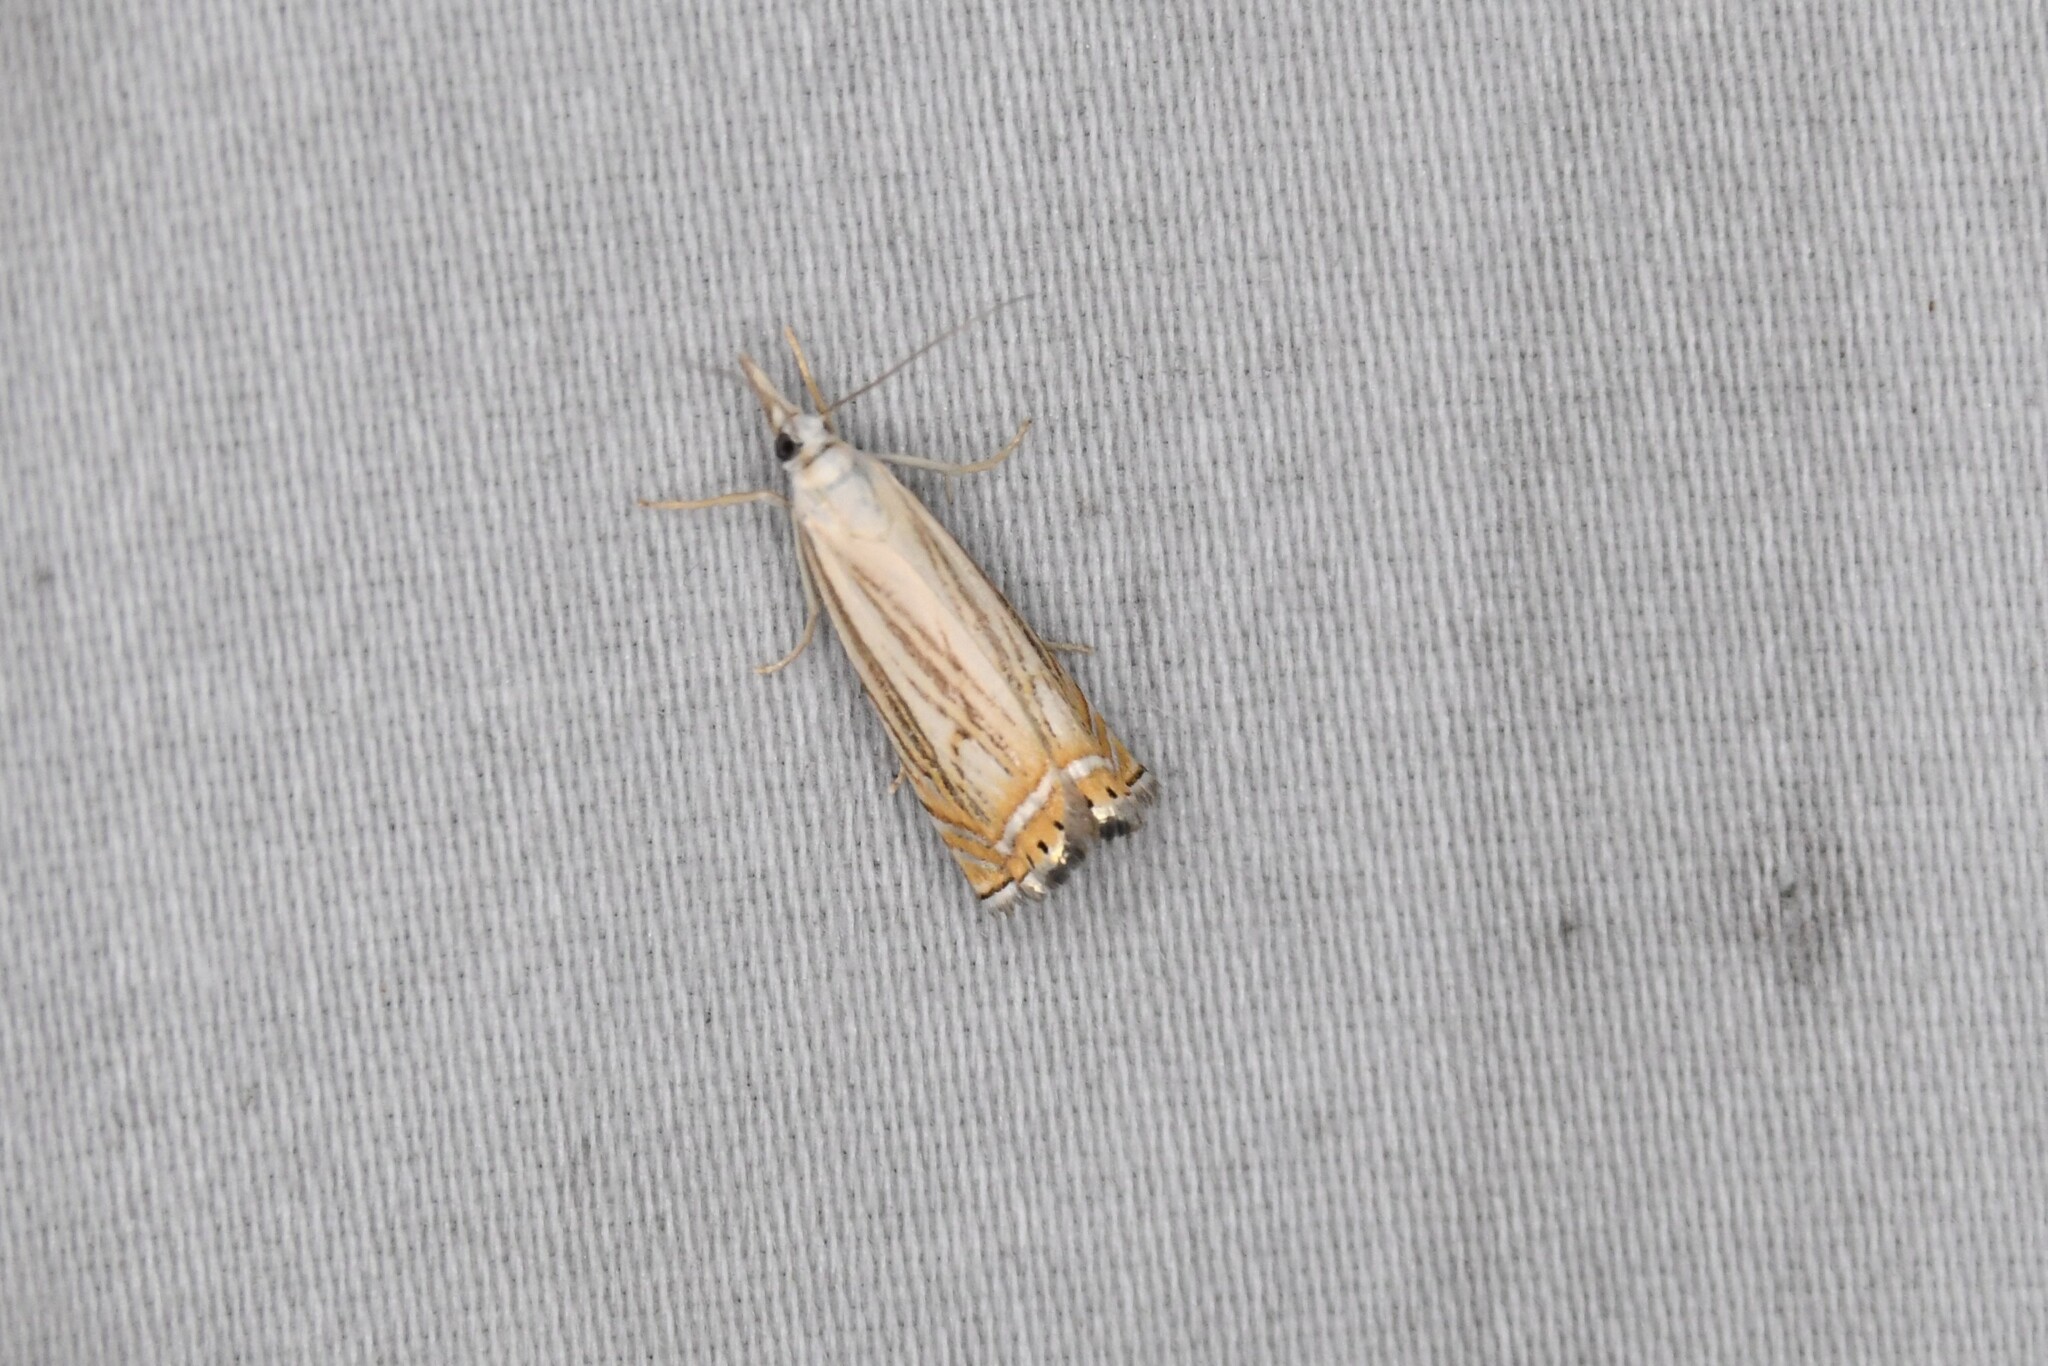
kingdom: Animalia
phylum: Arthropoda
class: Insecta
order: Lepidoptera
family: Crambidae
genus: Chrysoteuchia
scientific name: Chrysoteuchia topiarius
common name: Topiary grass-veneer
